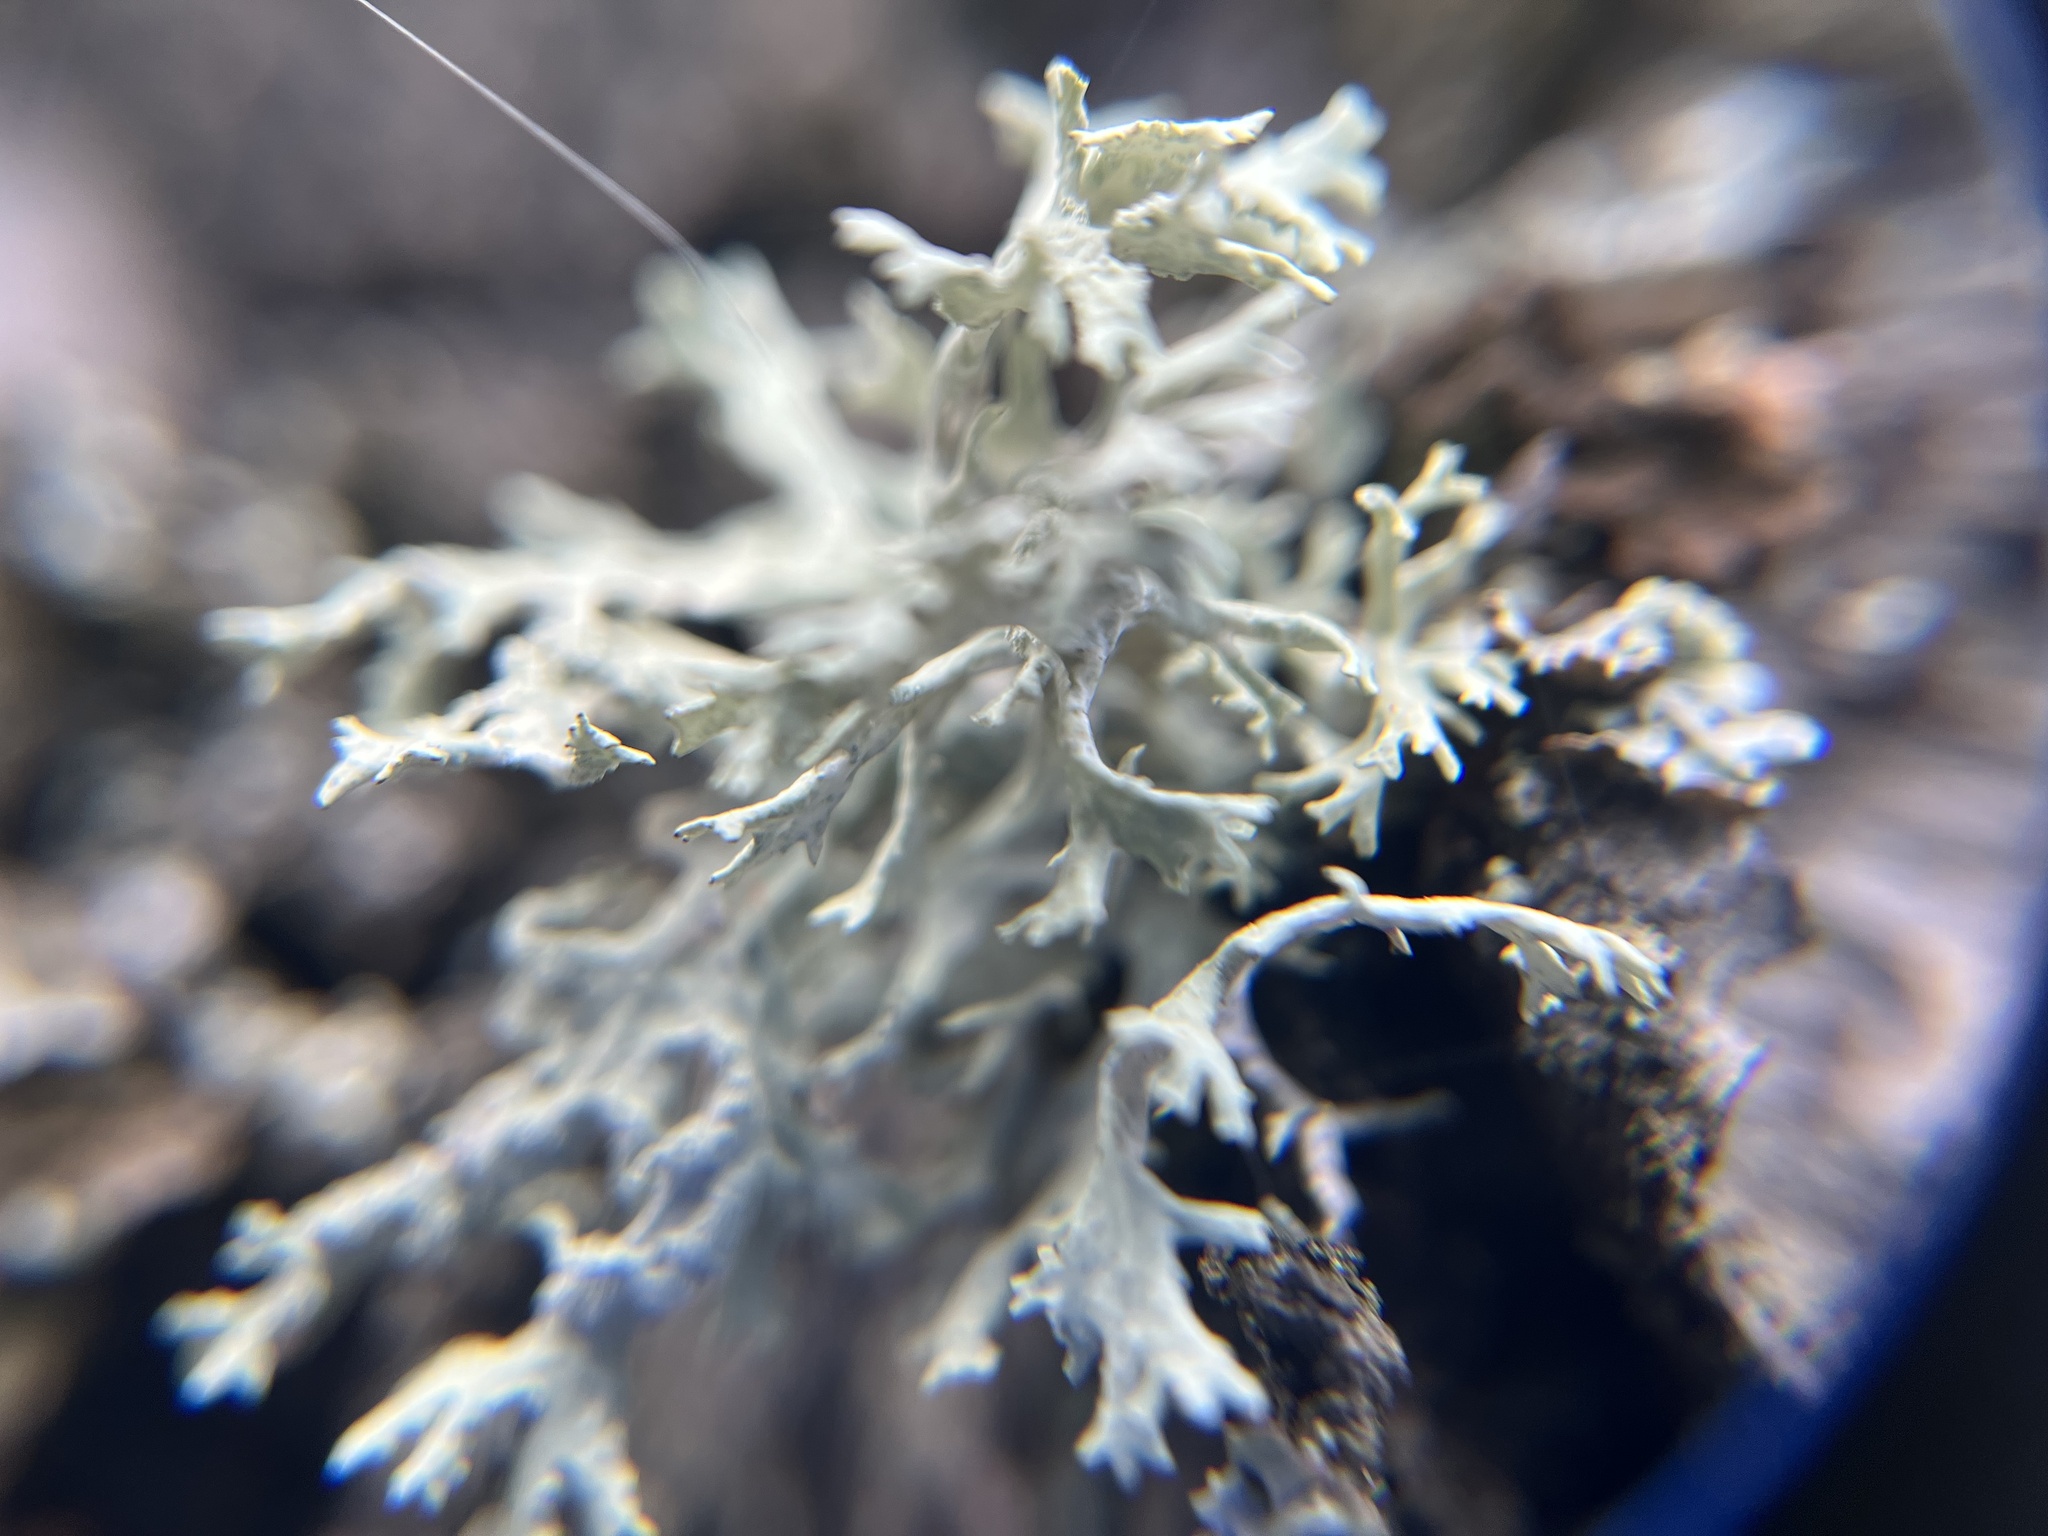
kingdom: Fungi
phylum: Ascomycota
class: Lecanoromycetes
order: Lecanorales
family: Parmeliaceae
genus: Evernia
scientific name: Evernia prunastri
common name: Oak moss
